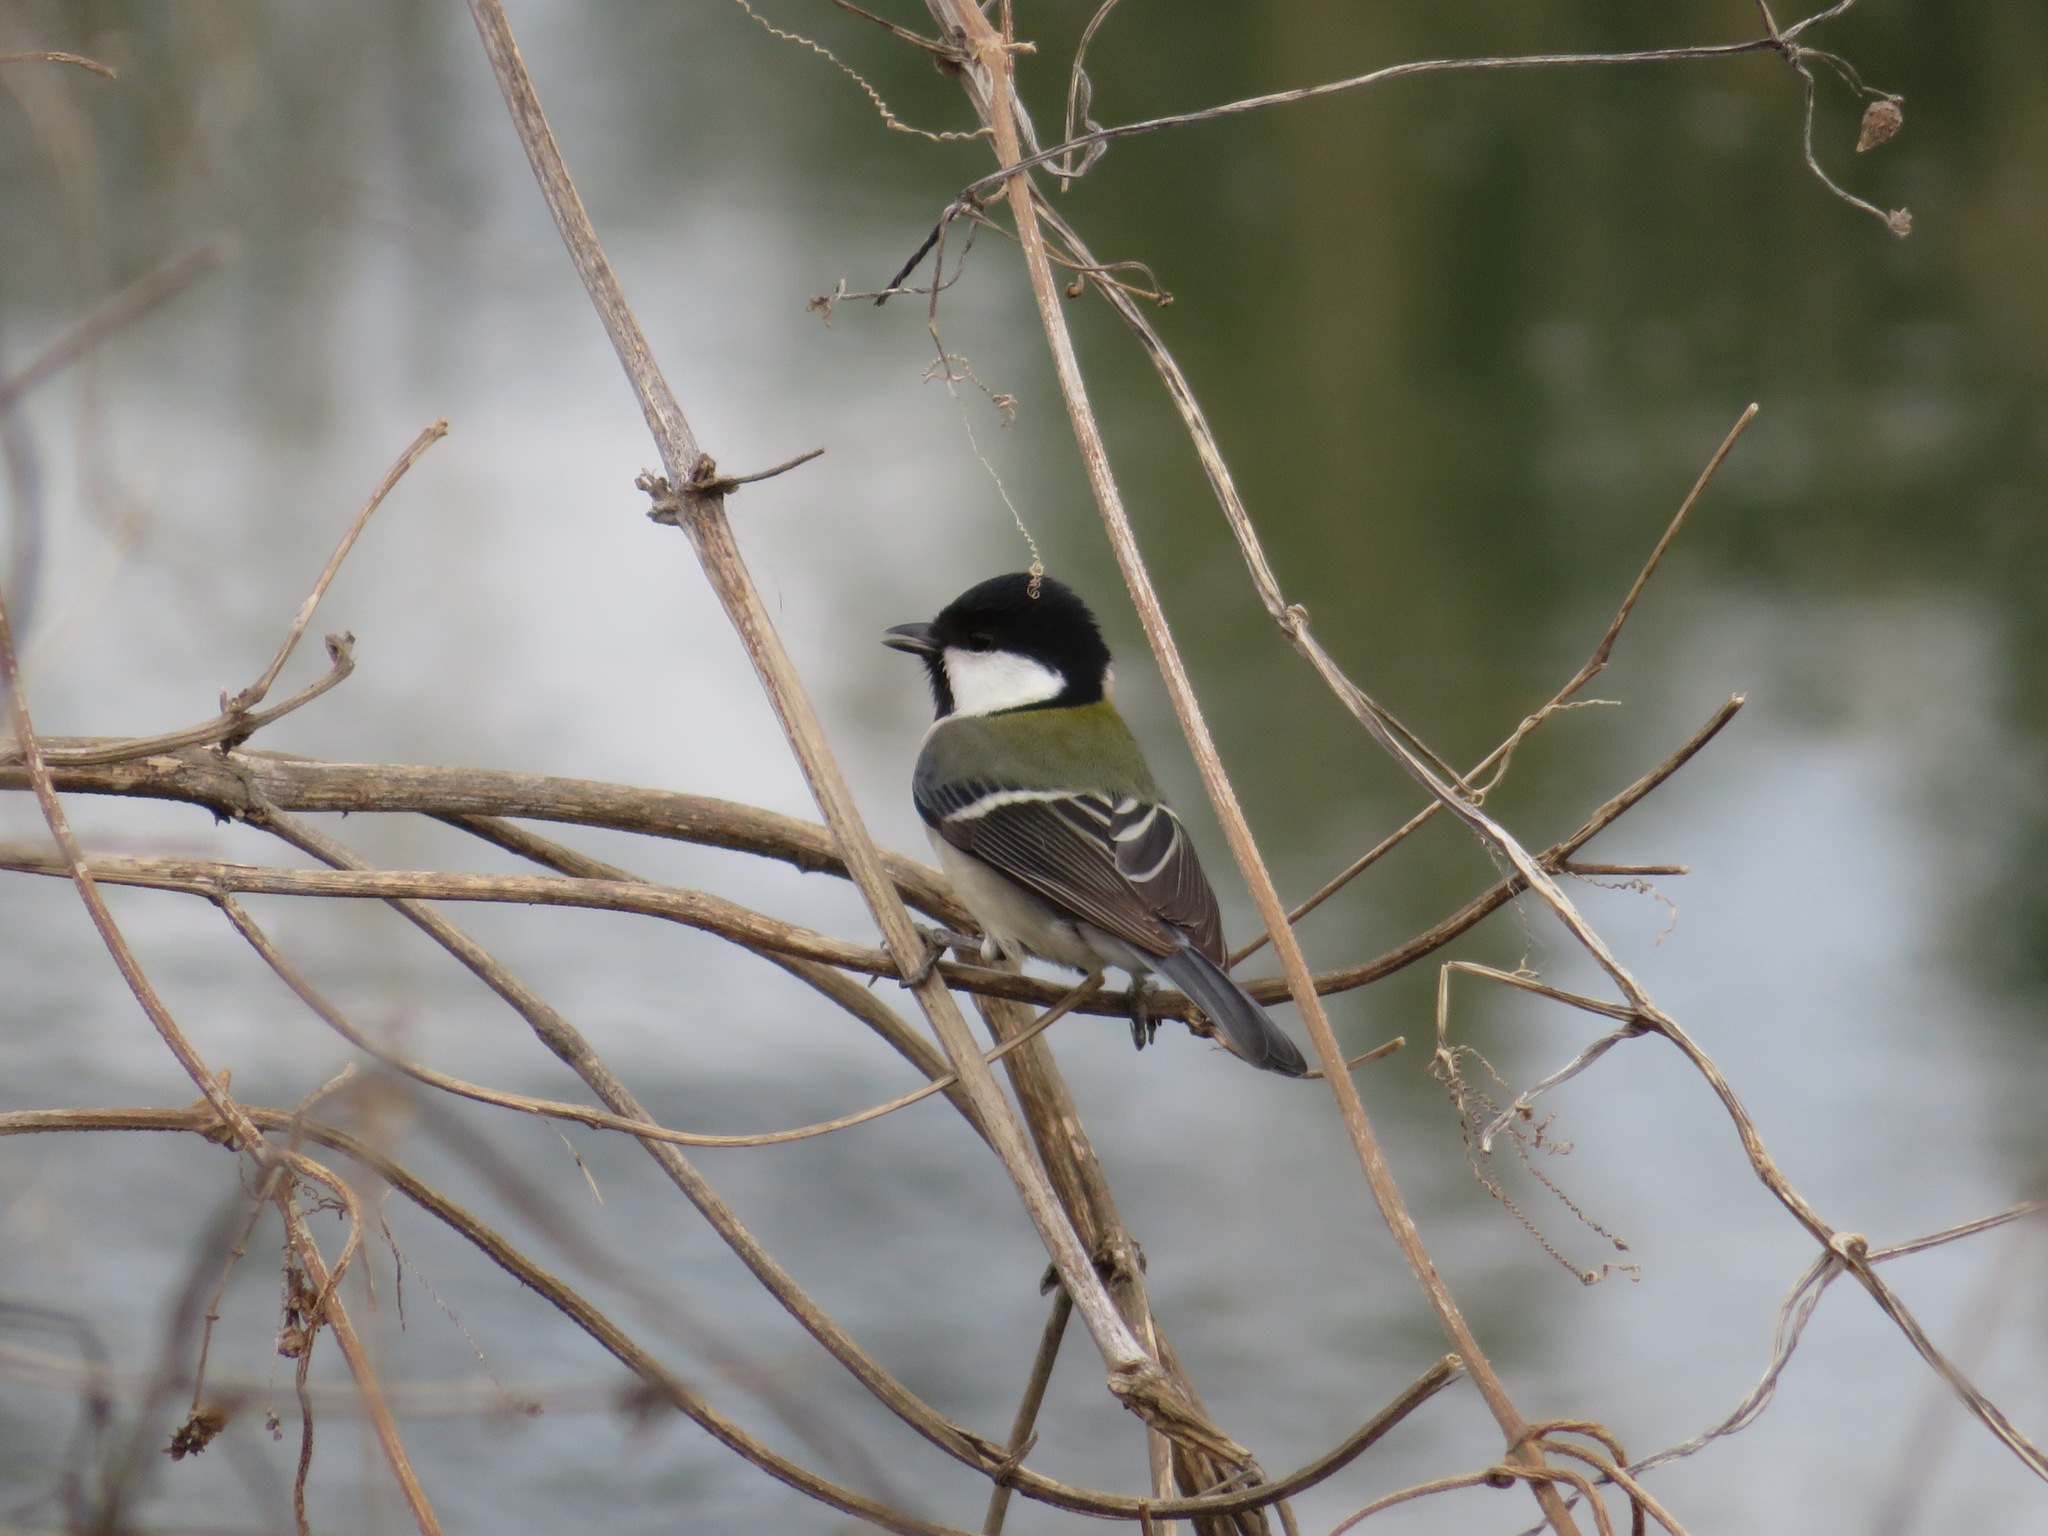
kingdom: Animalia
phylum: Chordata
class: Aves
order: Passeriformes
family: Paridae
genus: Parus
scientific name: Parus minor
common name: Japanese tit
